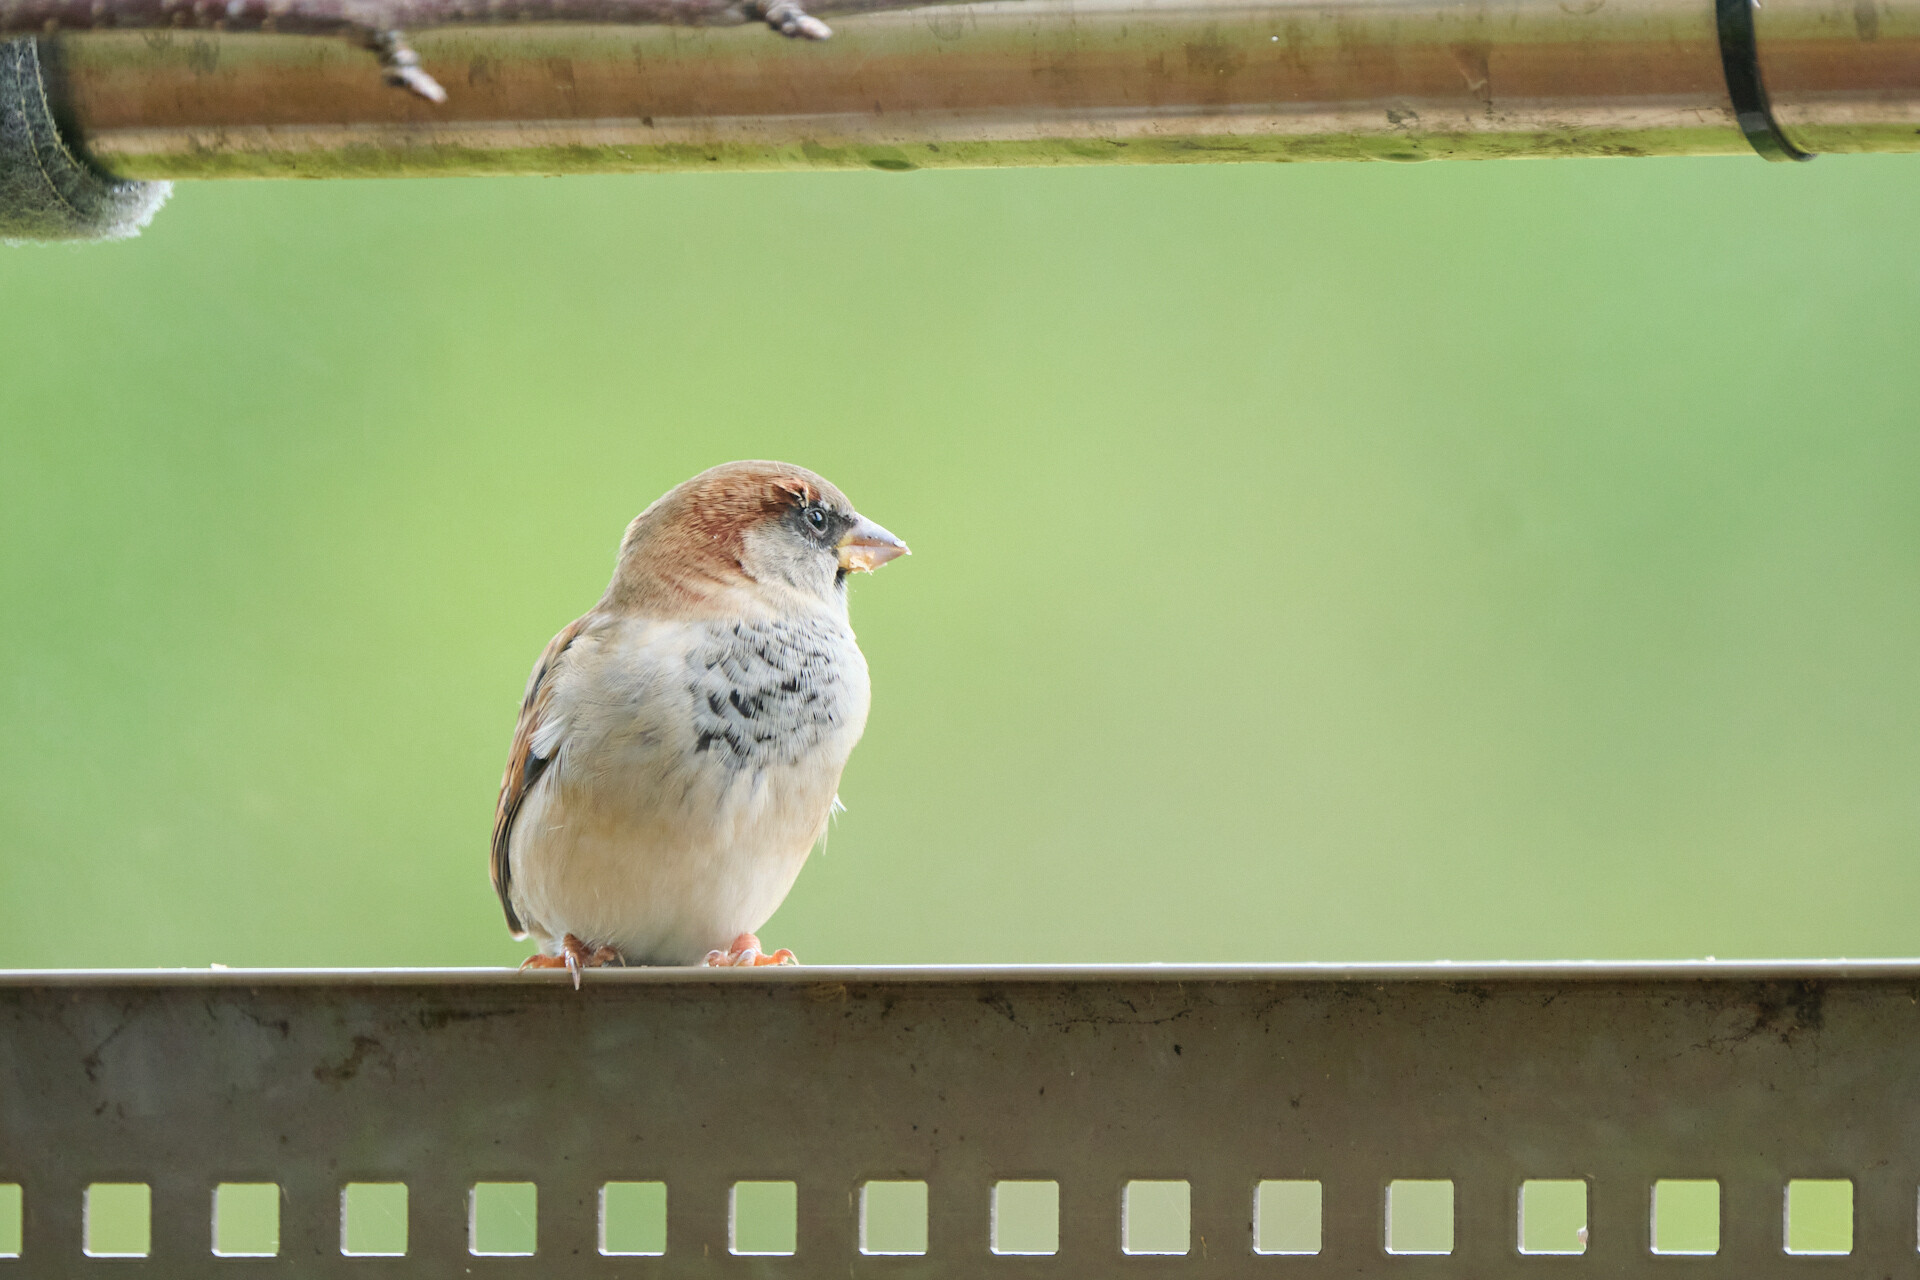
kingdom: Animalia
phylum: Chordata
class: Aves
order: Passeriformes
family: Passeridae
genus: Passer
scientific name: Passer domesticus
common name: House sparrow
